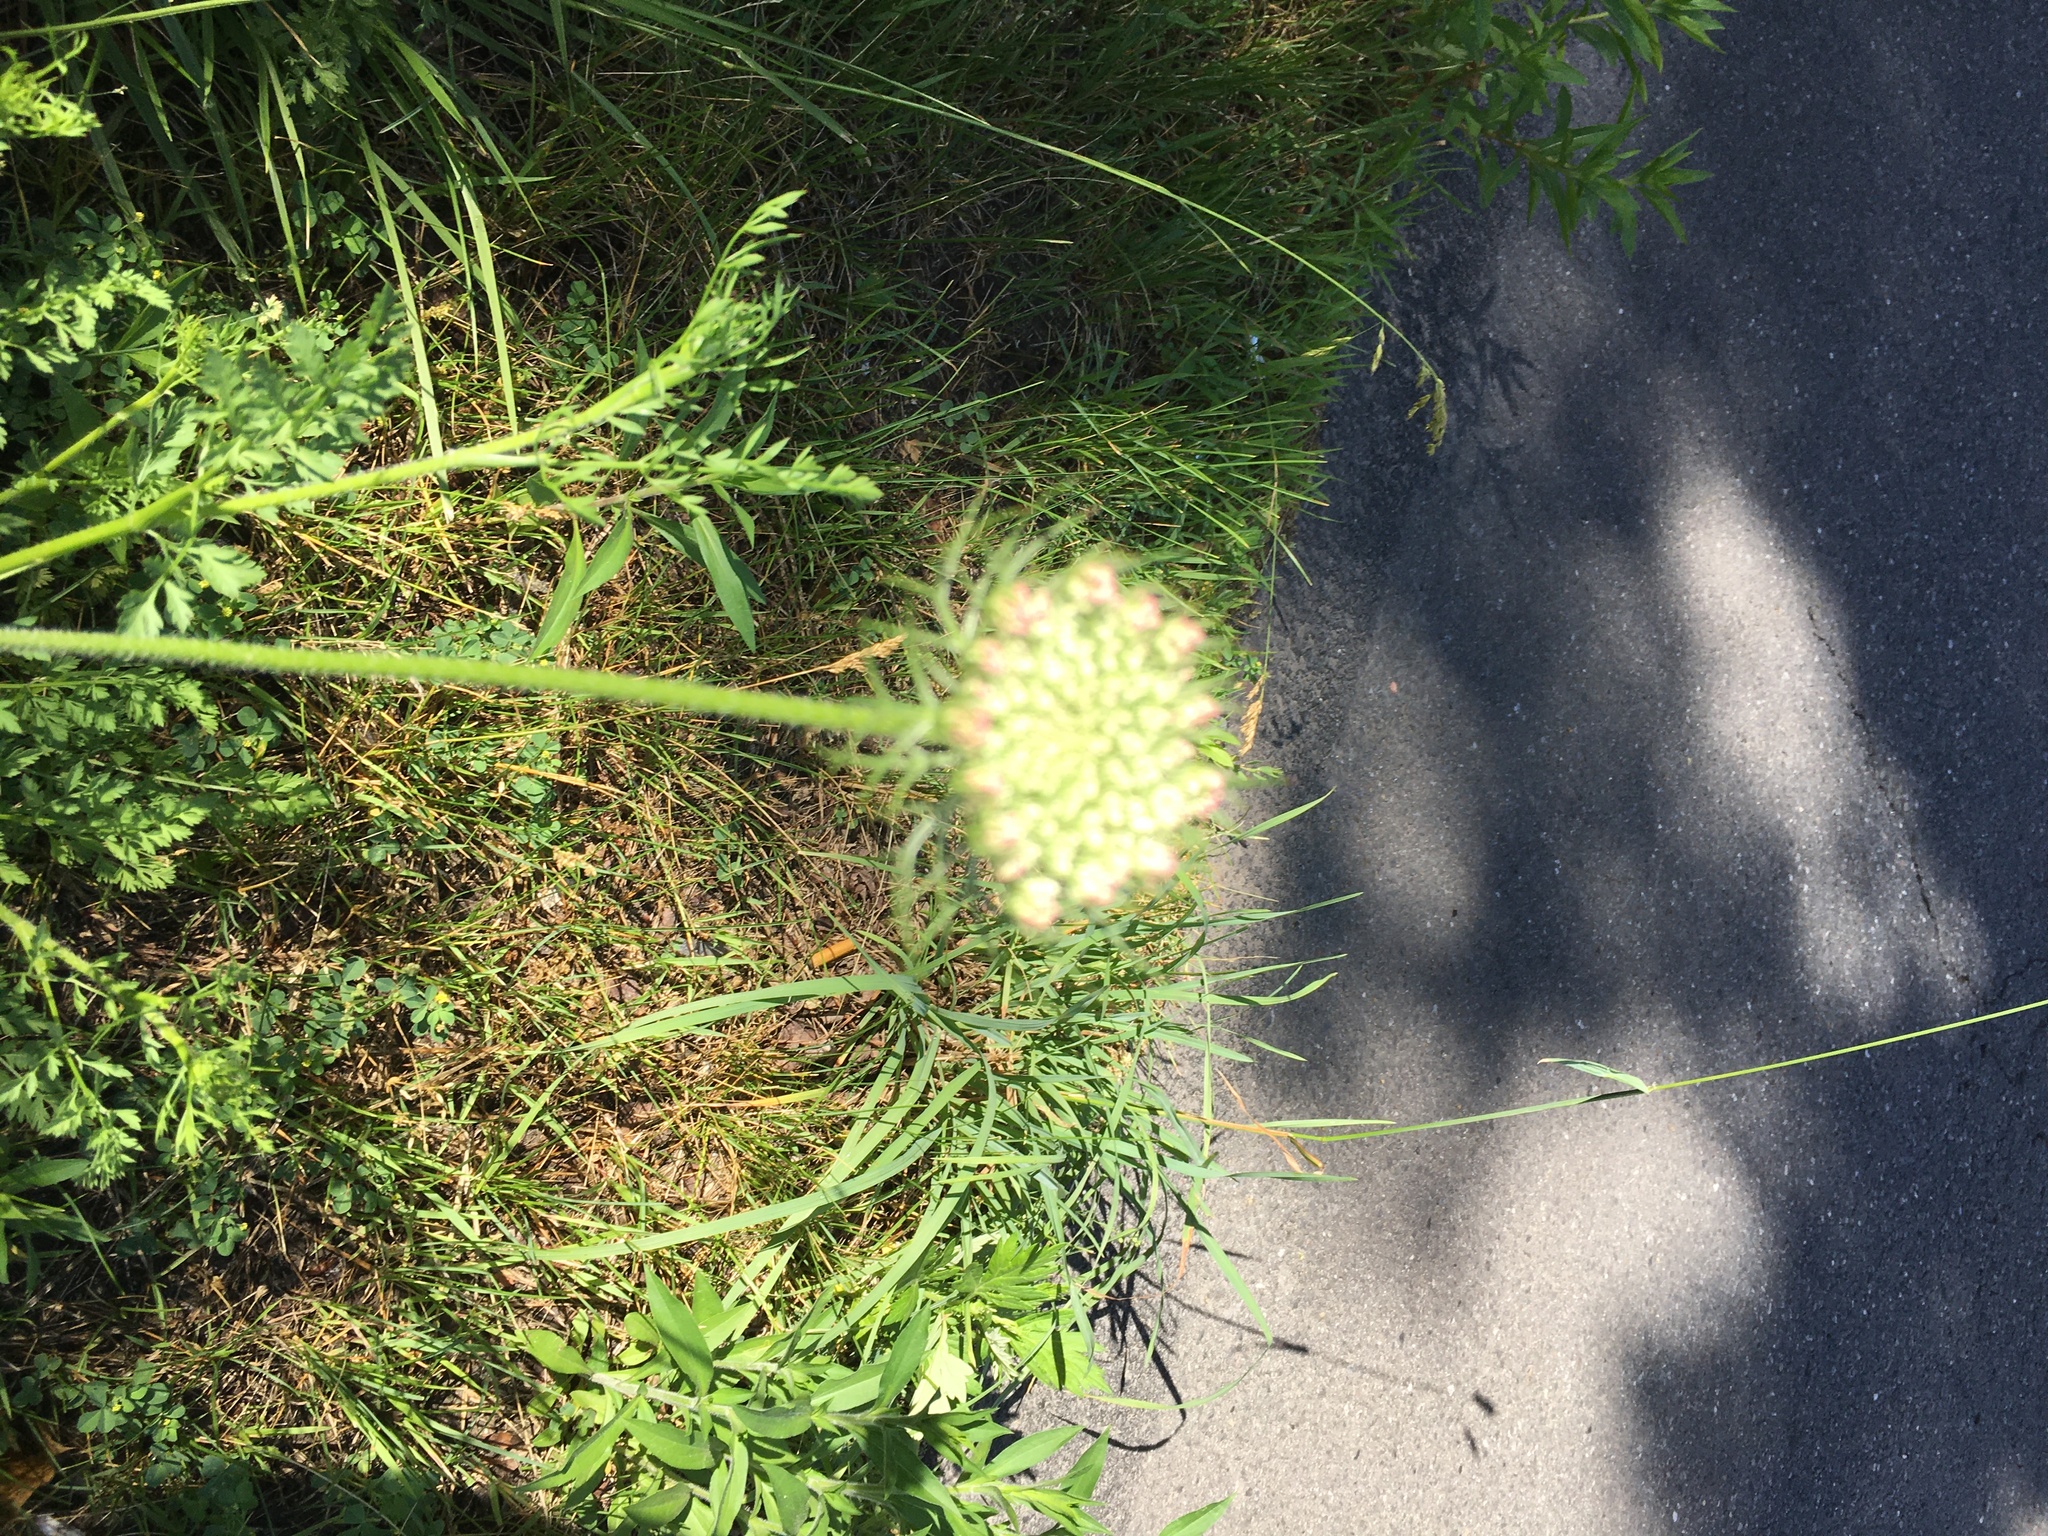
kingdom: Plantae
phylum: Tracheophyta
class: Magnoliopsida
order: Apiales
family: Apiaceae
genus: Daucus
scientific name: Daucus carota
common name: Wild carrot
